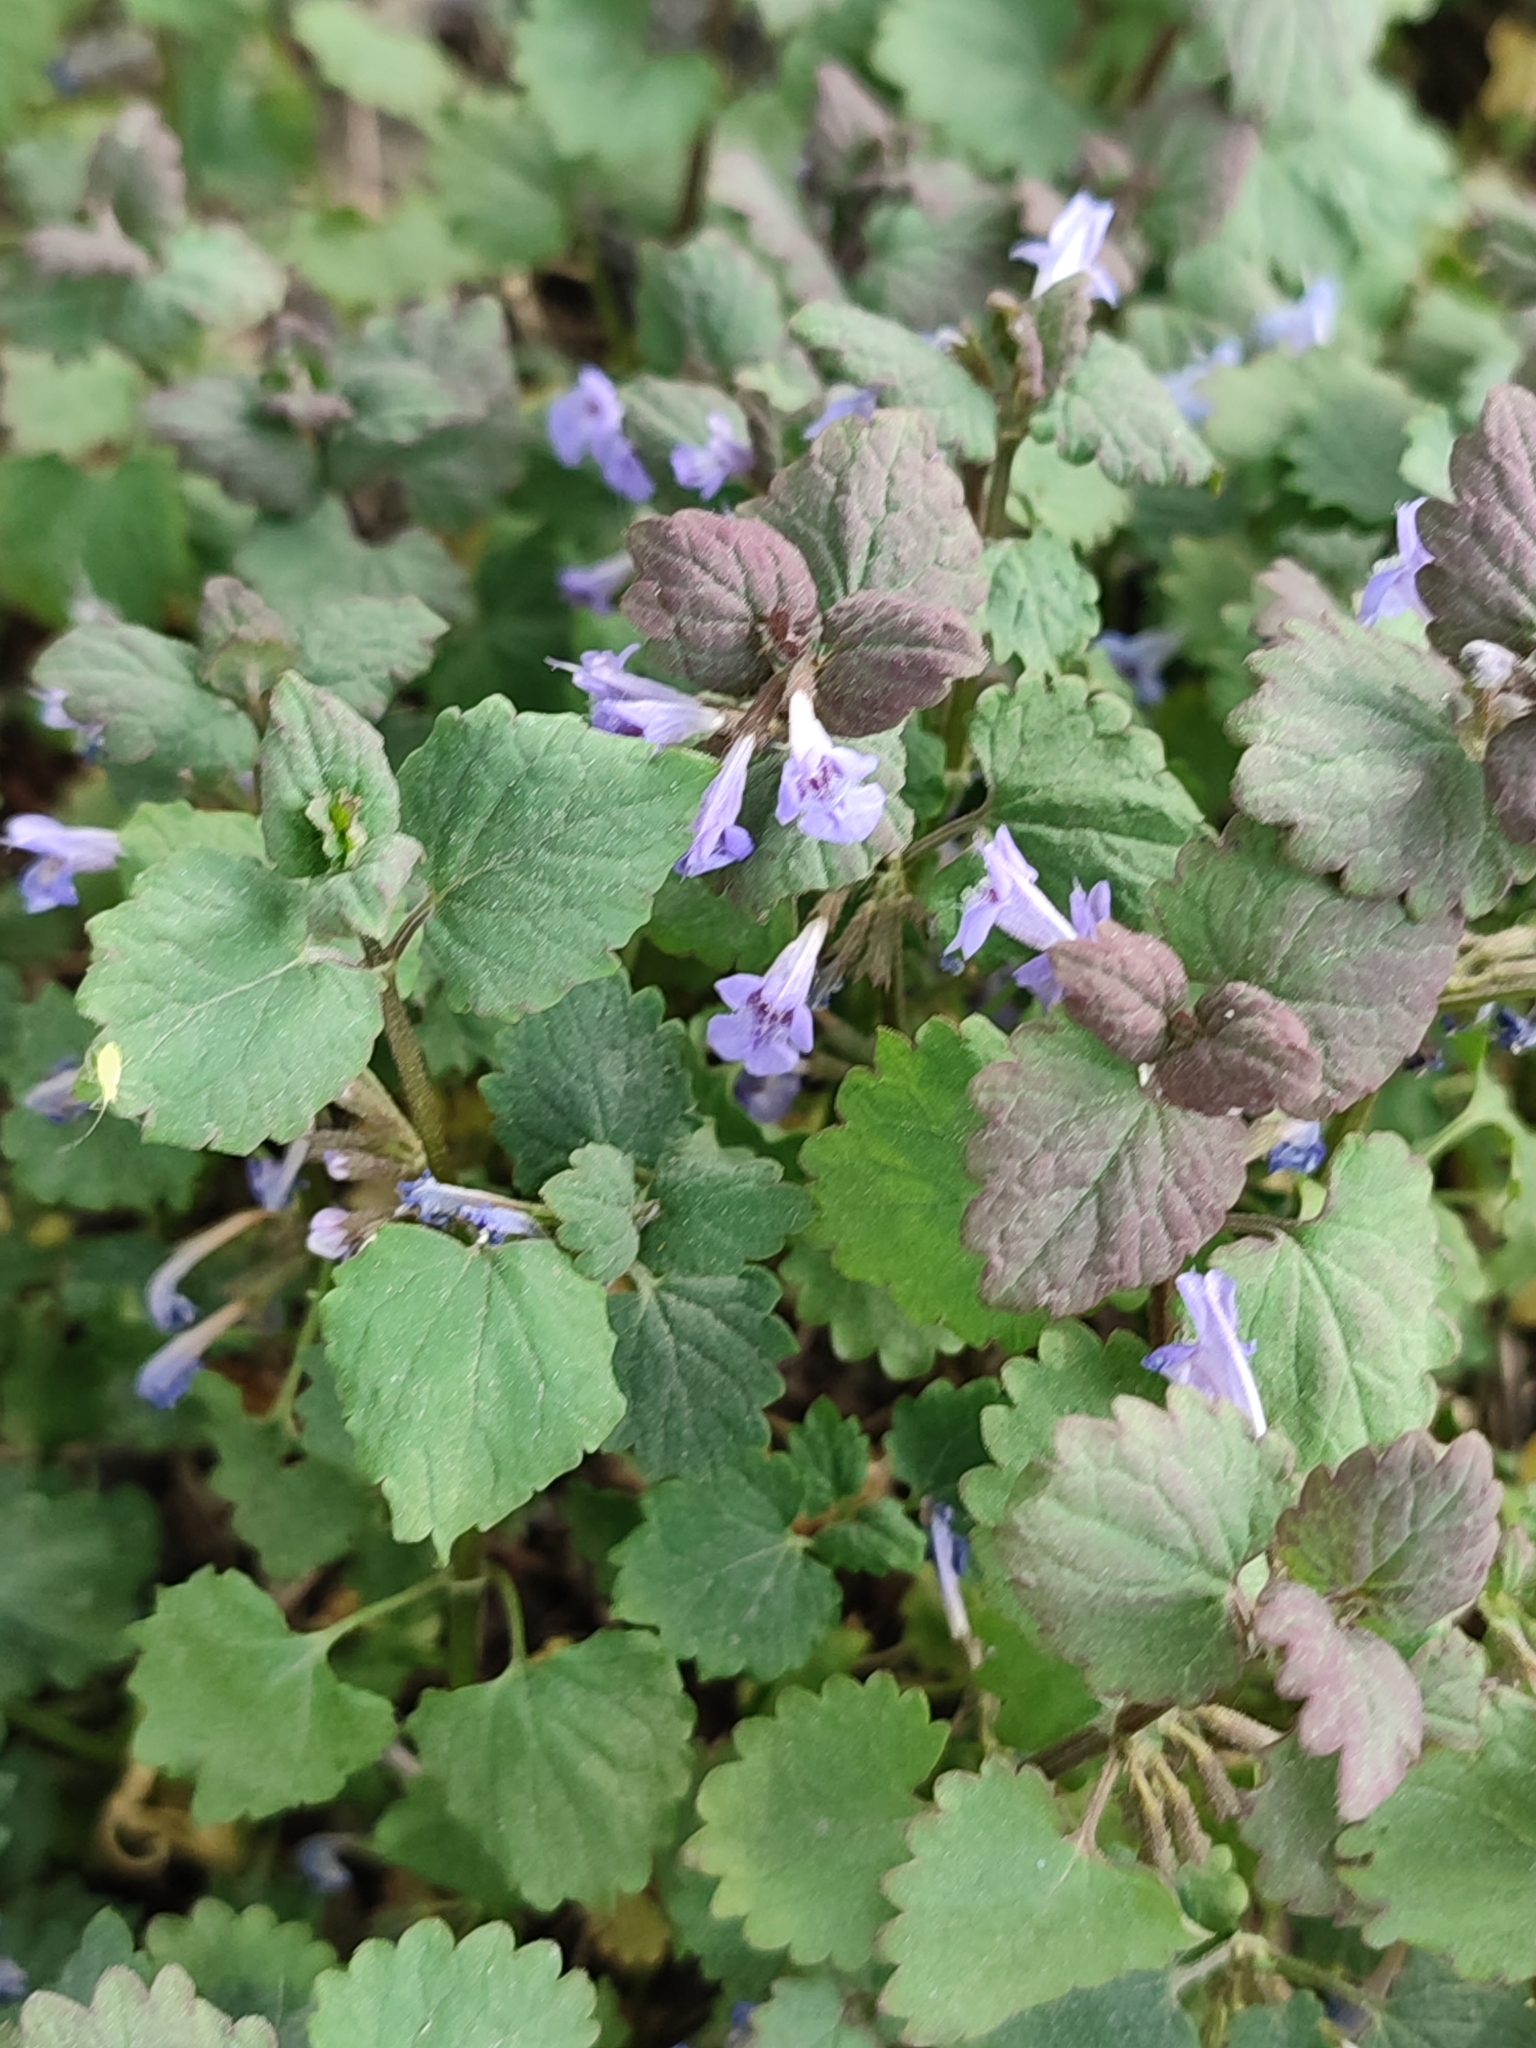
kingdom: Plantae
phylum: Tracheophyta
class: Magnoliopsida
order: Lamiales
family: Lamiaceae
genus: Glechoma
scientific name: Glechoma hederacea
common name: Ground ivy
